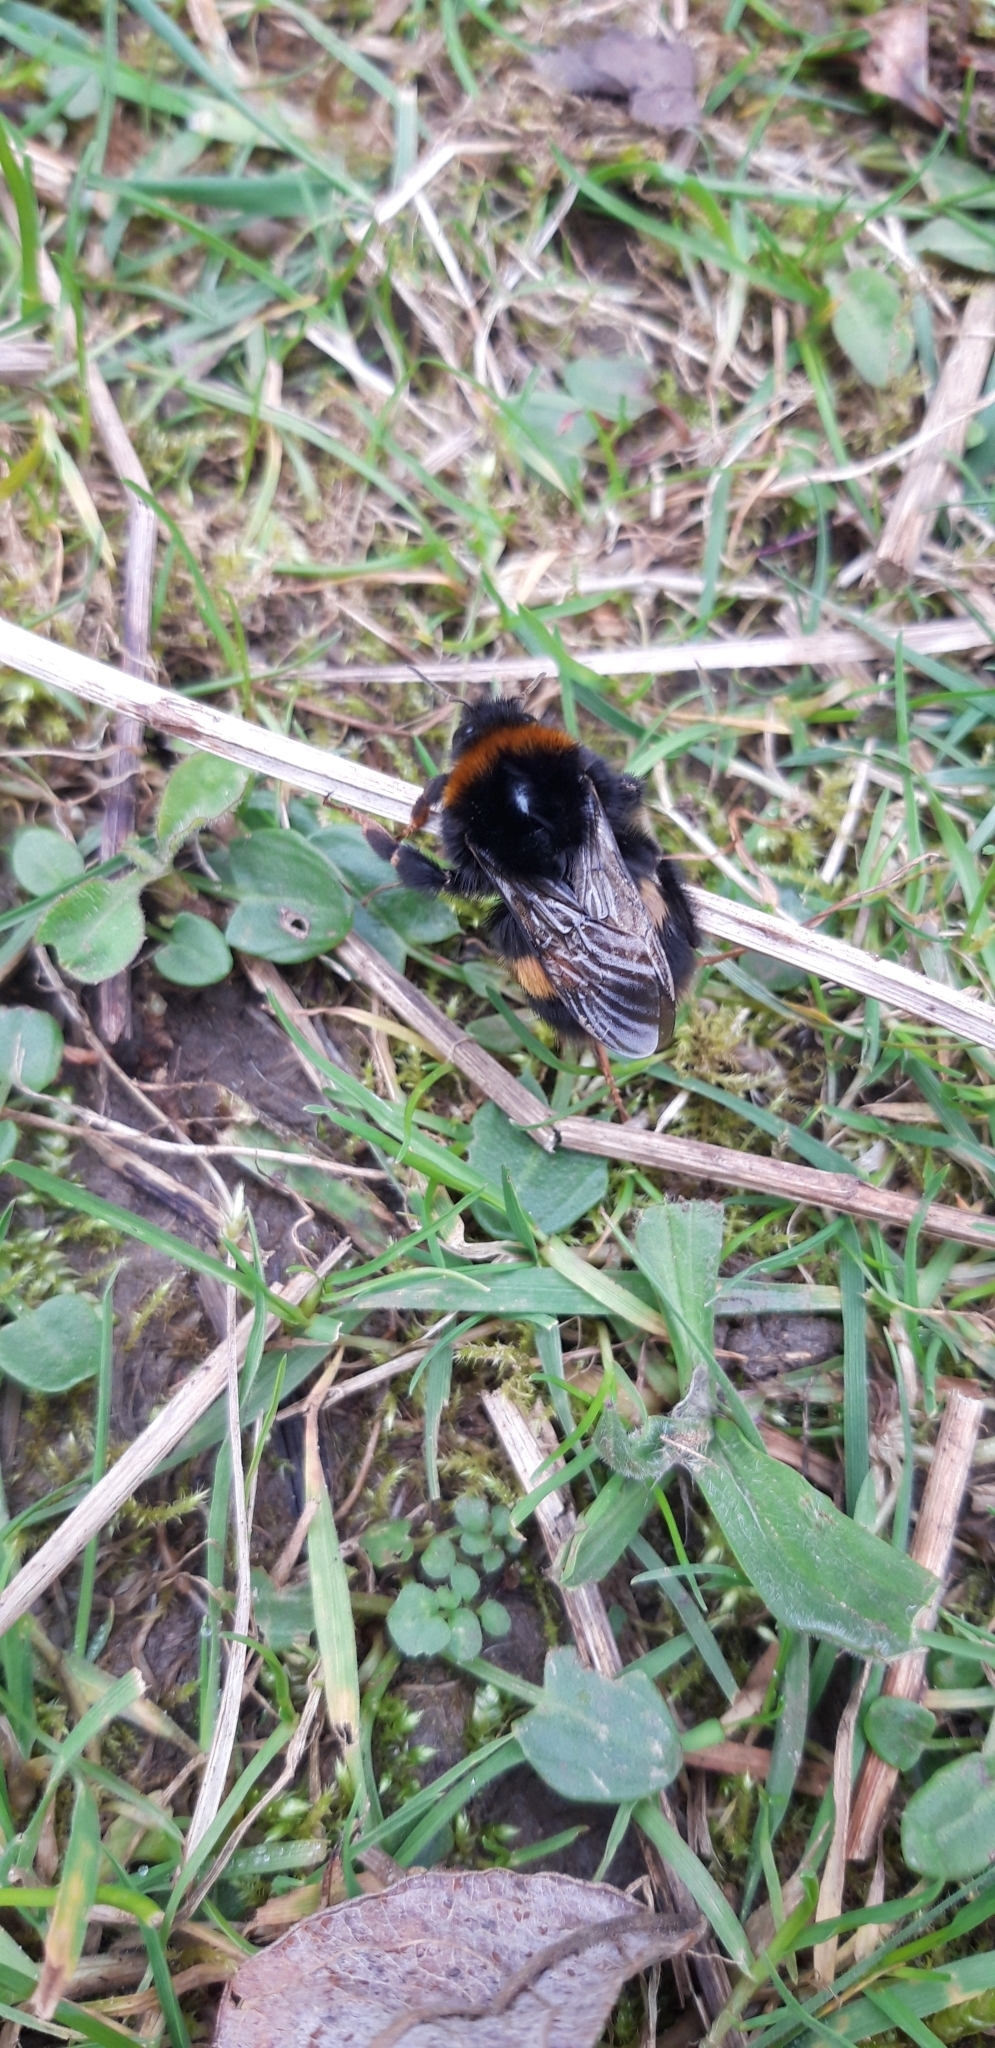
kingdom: Animalia
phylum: Arthropoda
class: Insecta
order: Hymenoptera
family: Apidae
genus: Bombus
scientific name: Bombus terrestris
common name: Buff-tailed bumblebee
